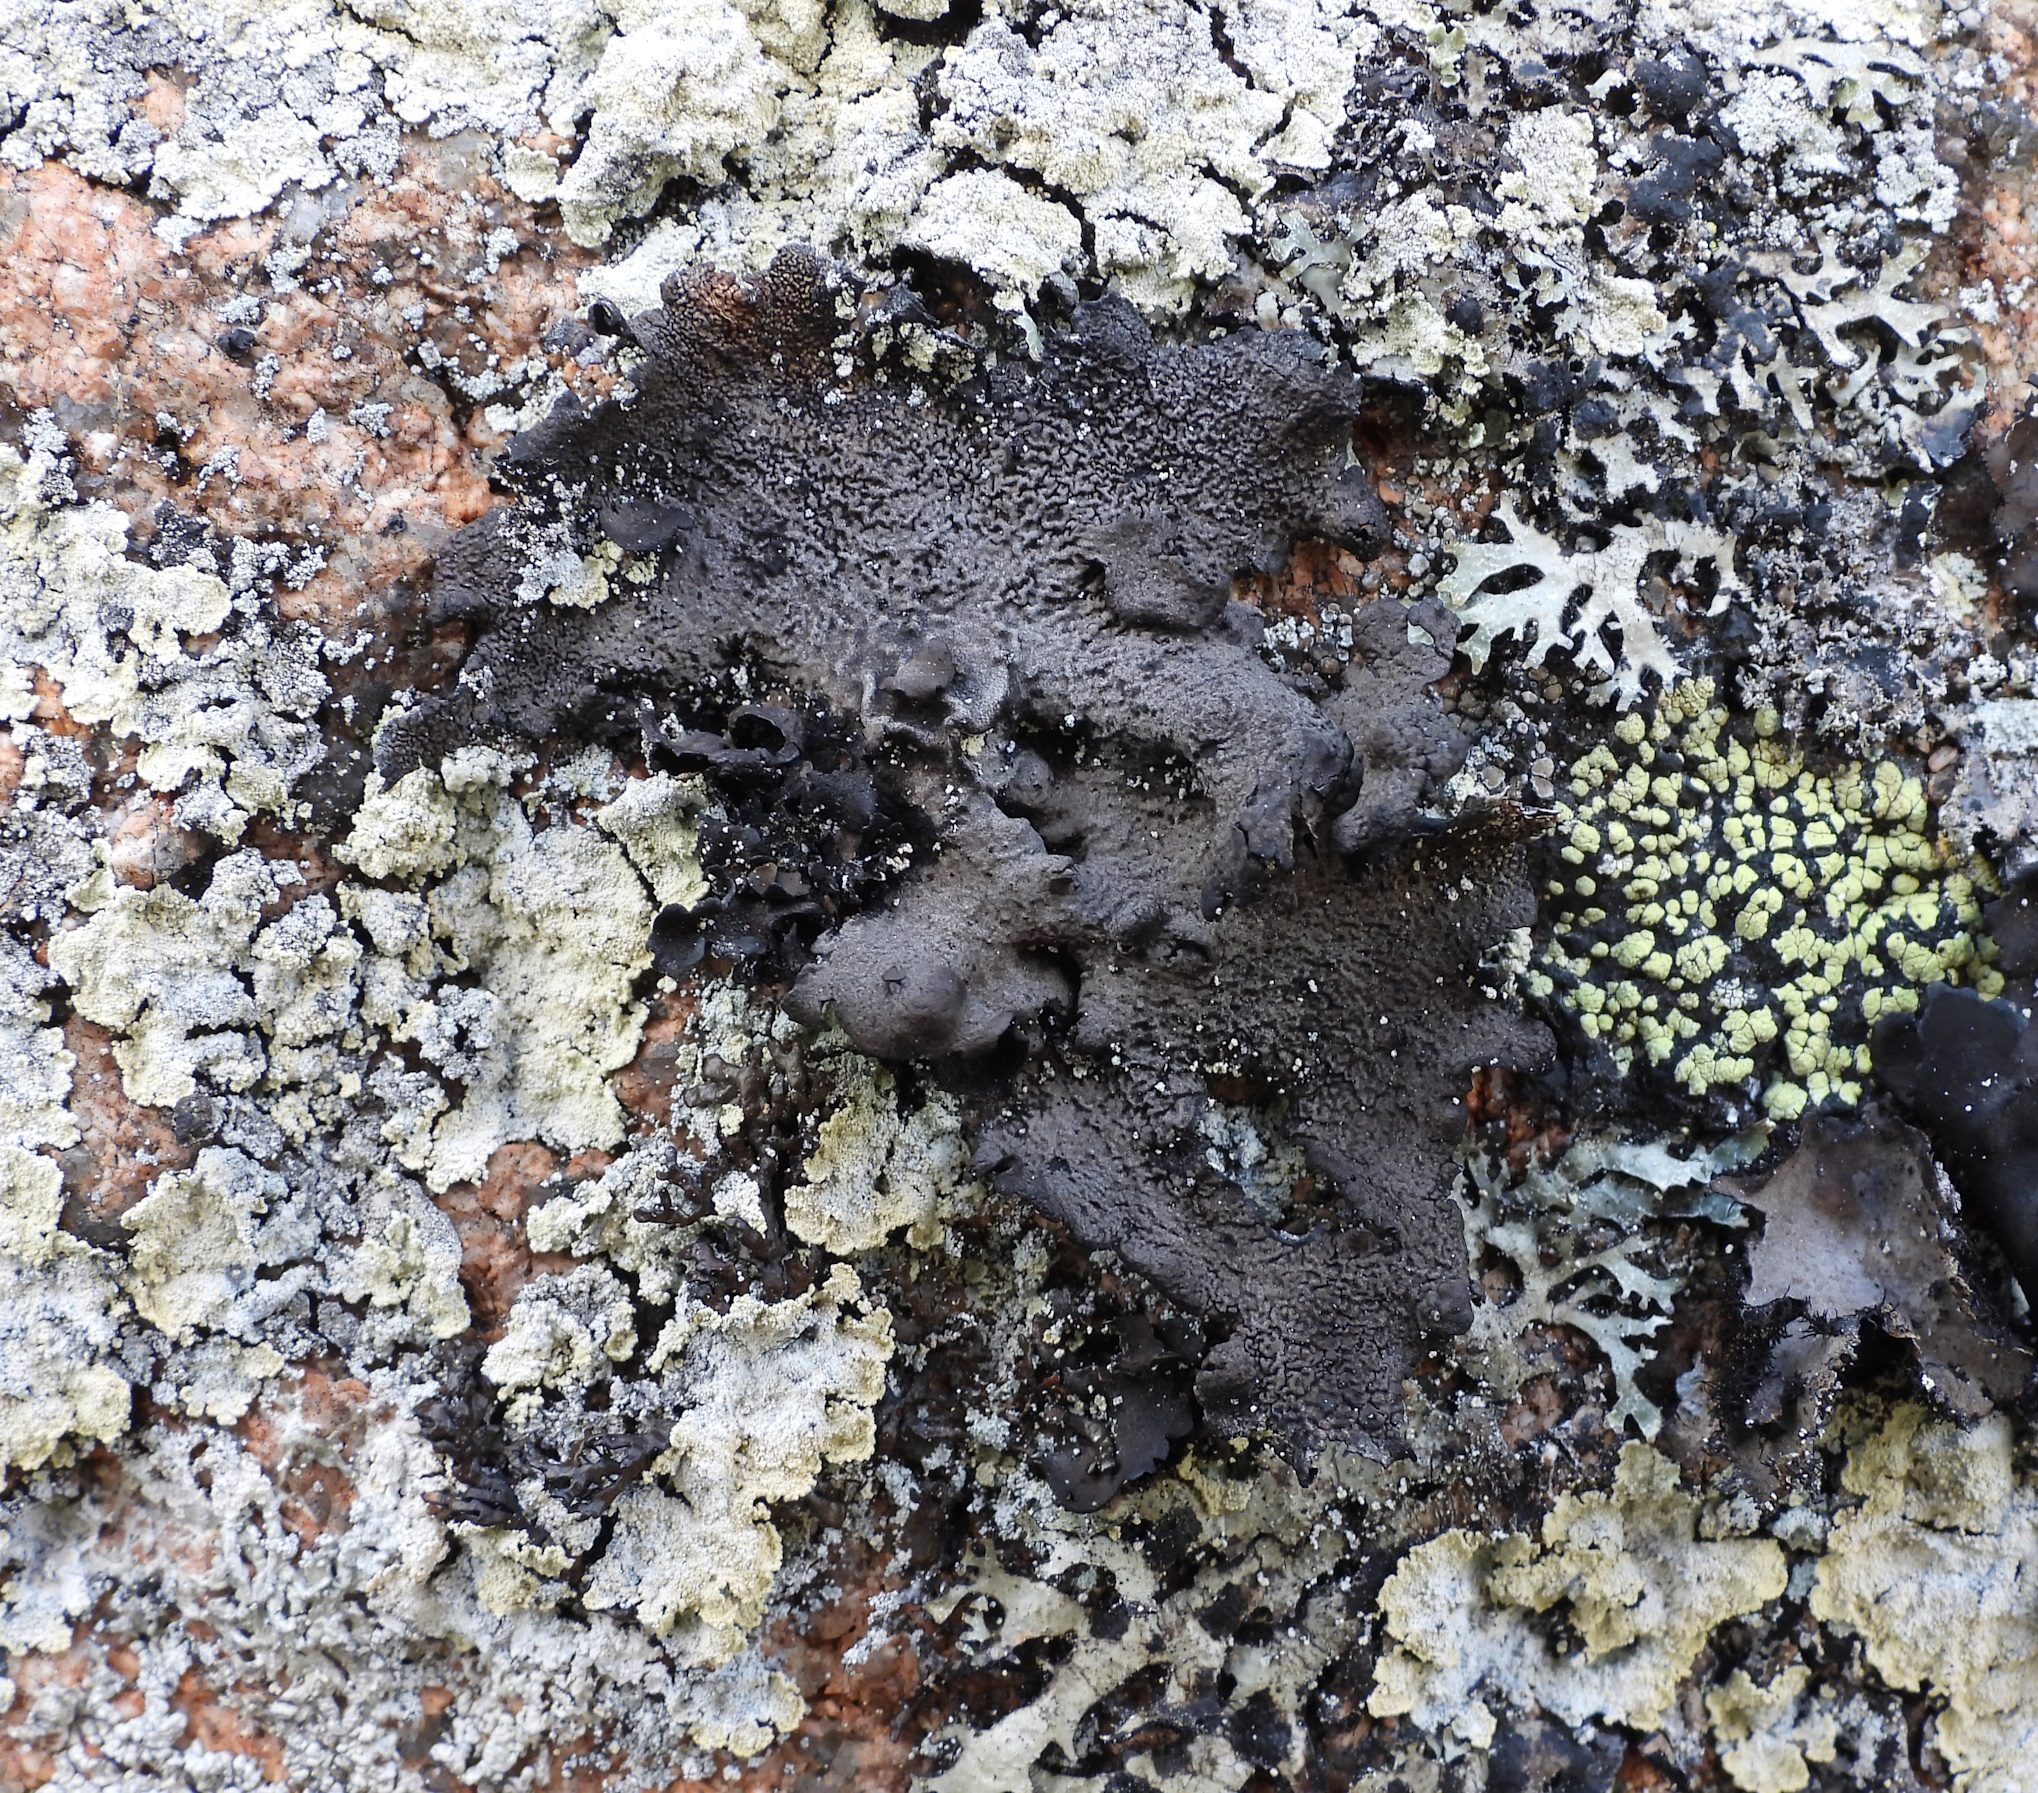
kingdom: Fungi
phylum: Ascomycota
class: Lecanoromycetes
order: Umbilicariales
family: Umbilicariaceae
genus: Umbilicaria
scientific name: Umbilicaria nylanderiana
